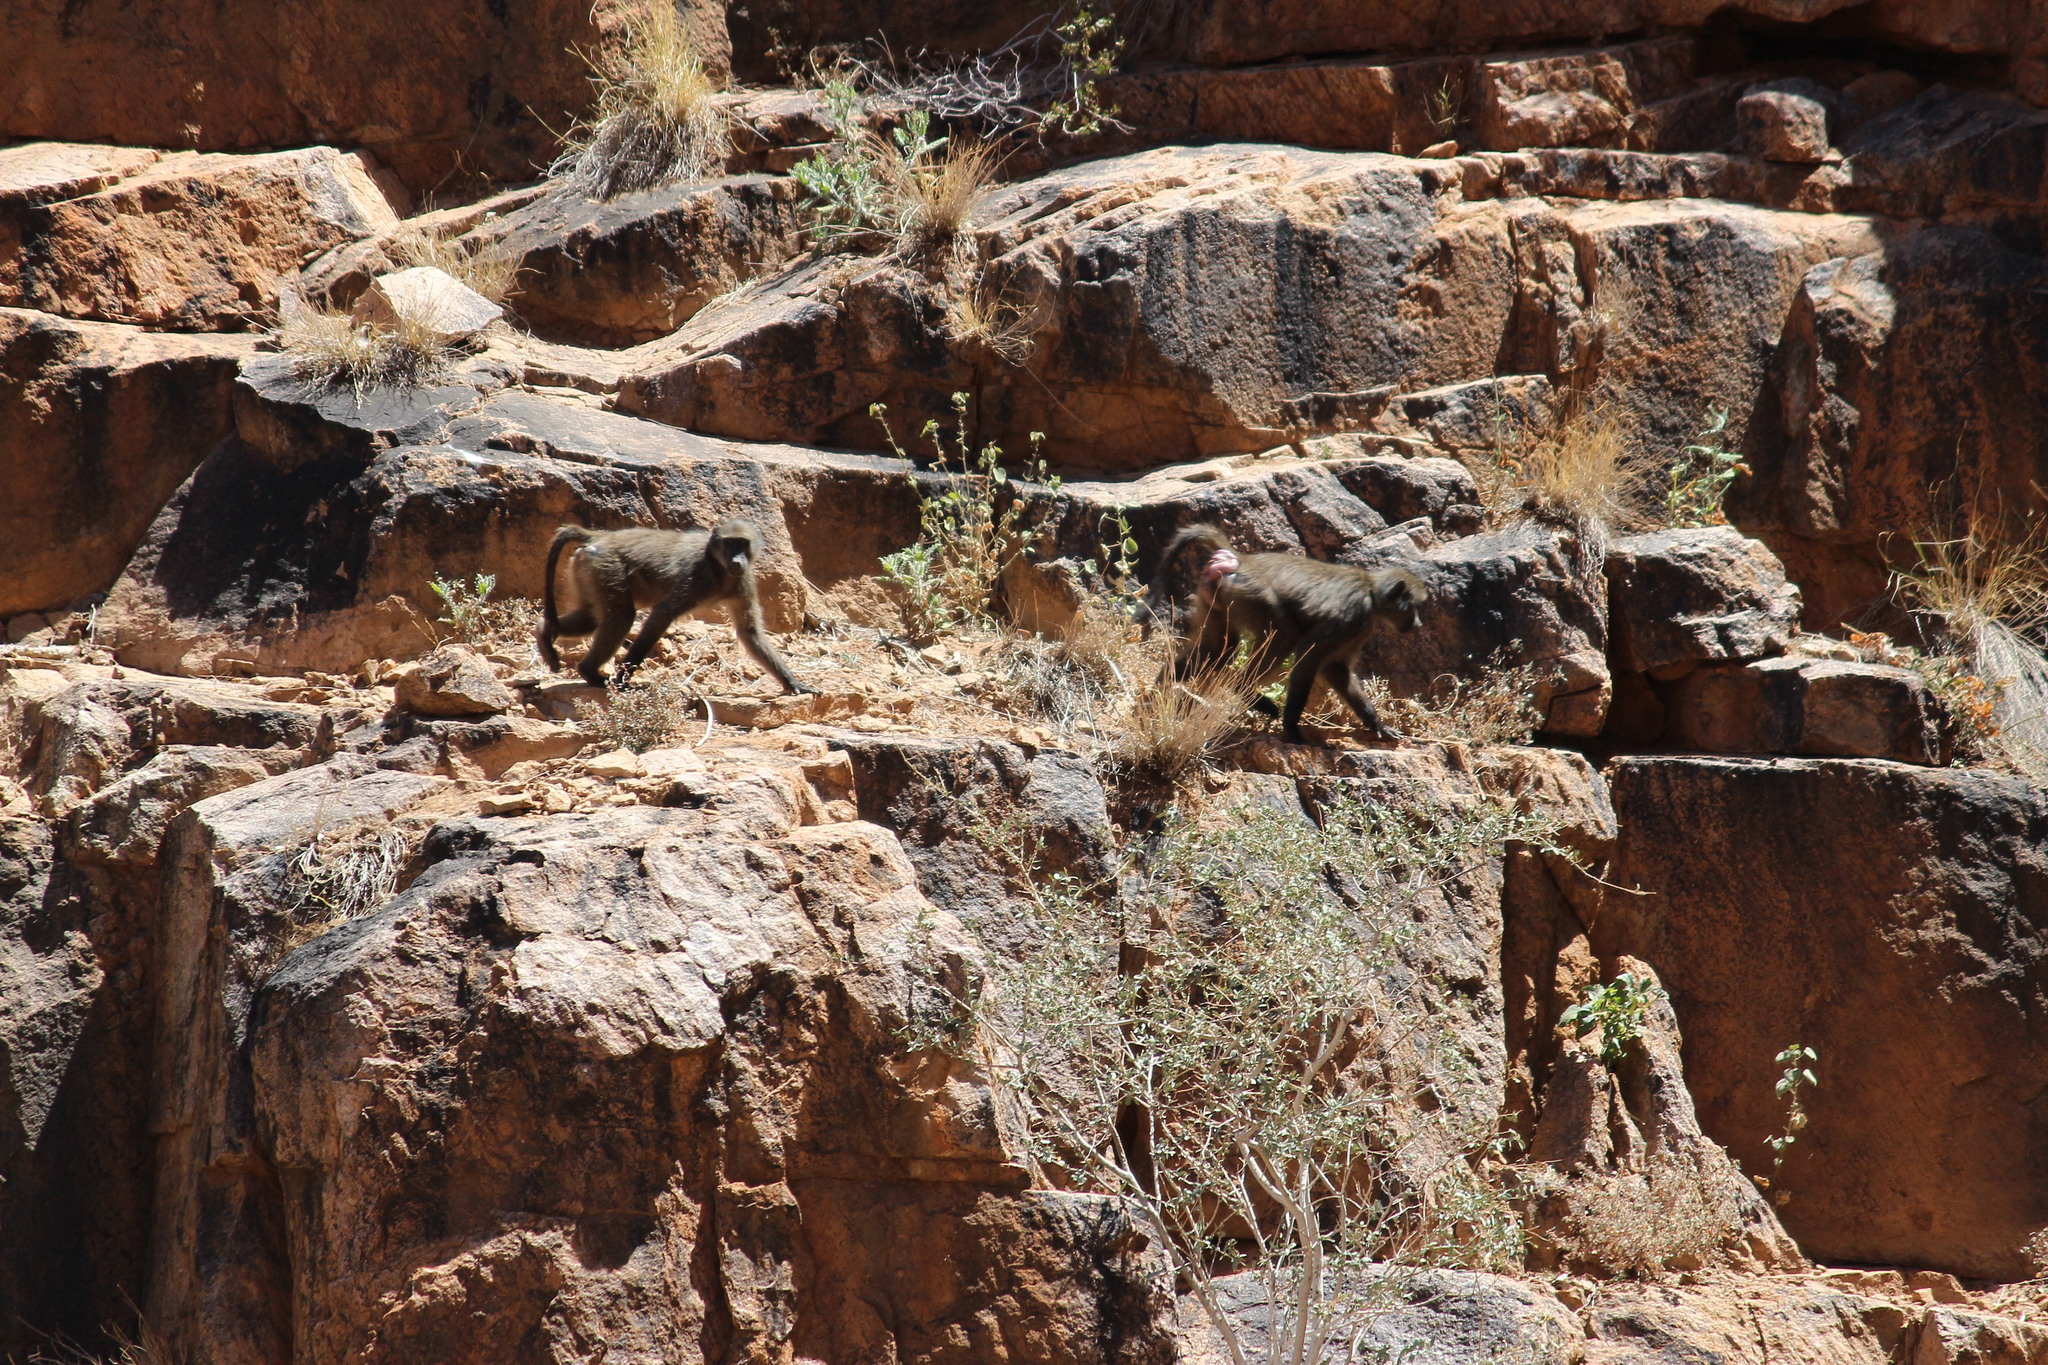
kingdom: Animalia
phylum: Chordata
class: Mammalia
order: Primates
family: Cercopithecidae
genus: Papio
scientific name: Papio ursinus
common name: Chacma baboon
